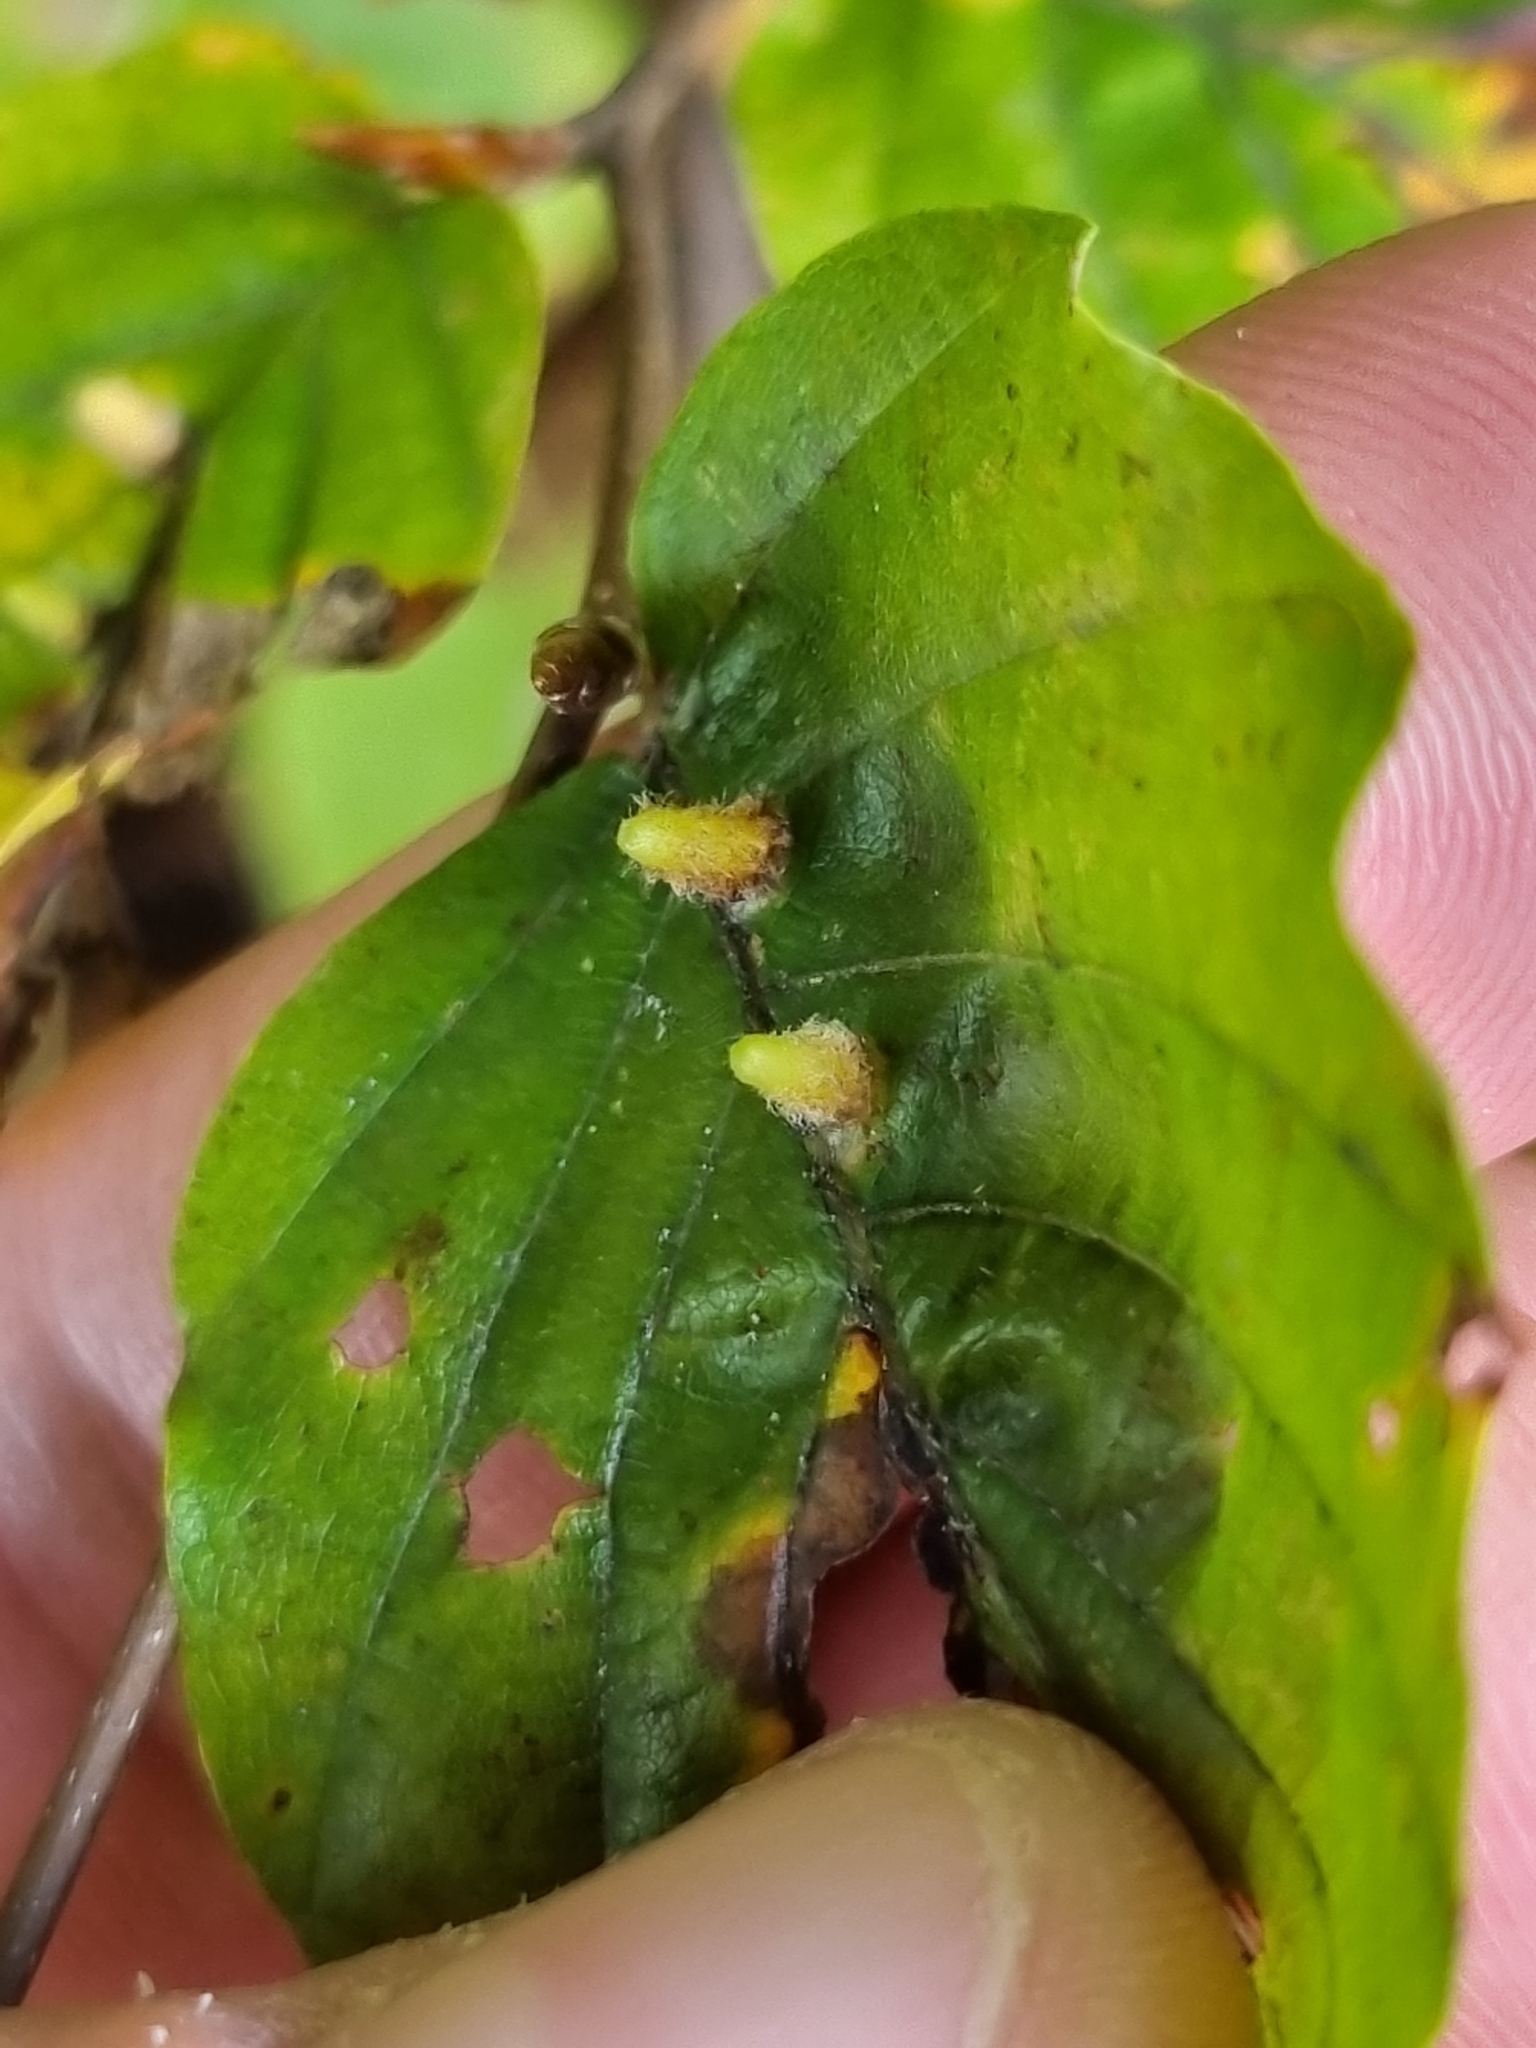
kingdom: Animalia
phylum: Arthropoda
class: Insecta
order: Diptera
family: Cecidomyiidae
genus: Hartigiola
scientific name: Hartigiola annulipes
